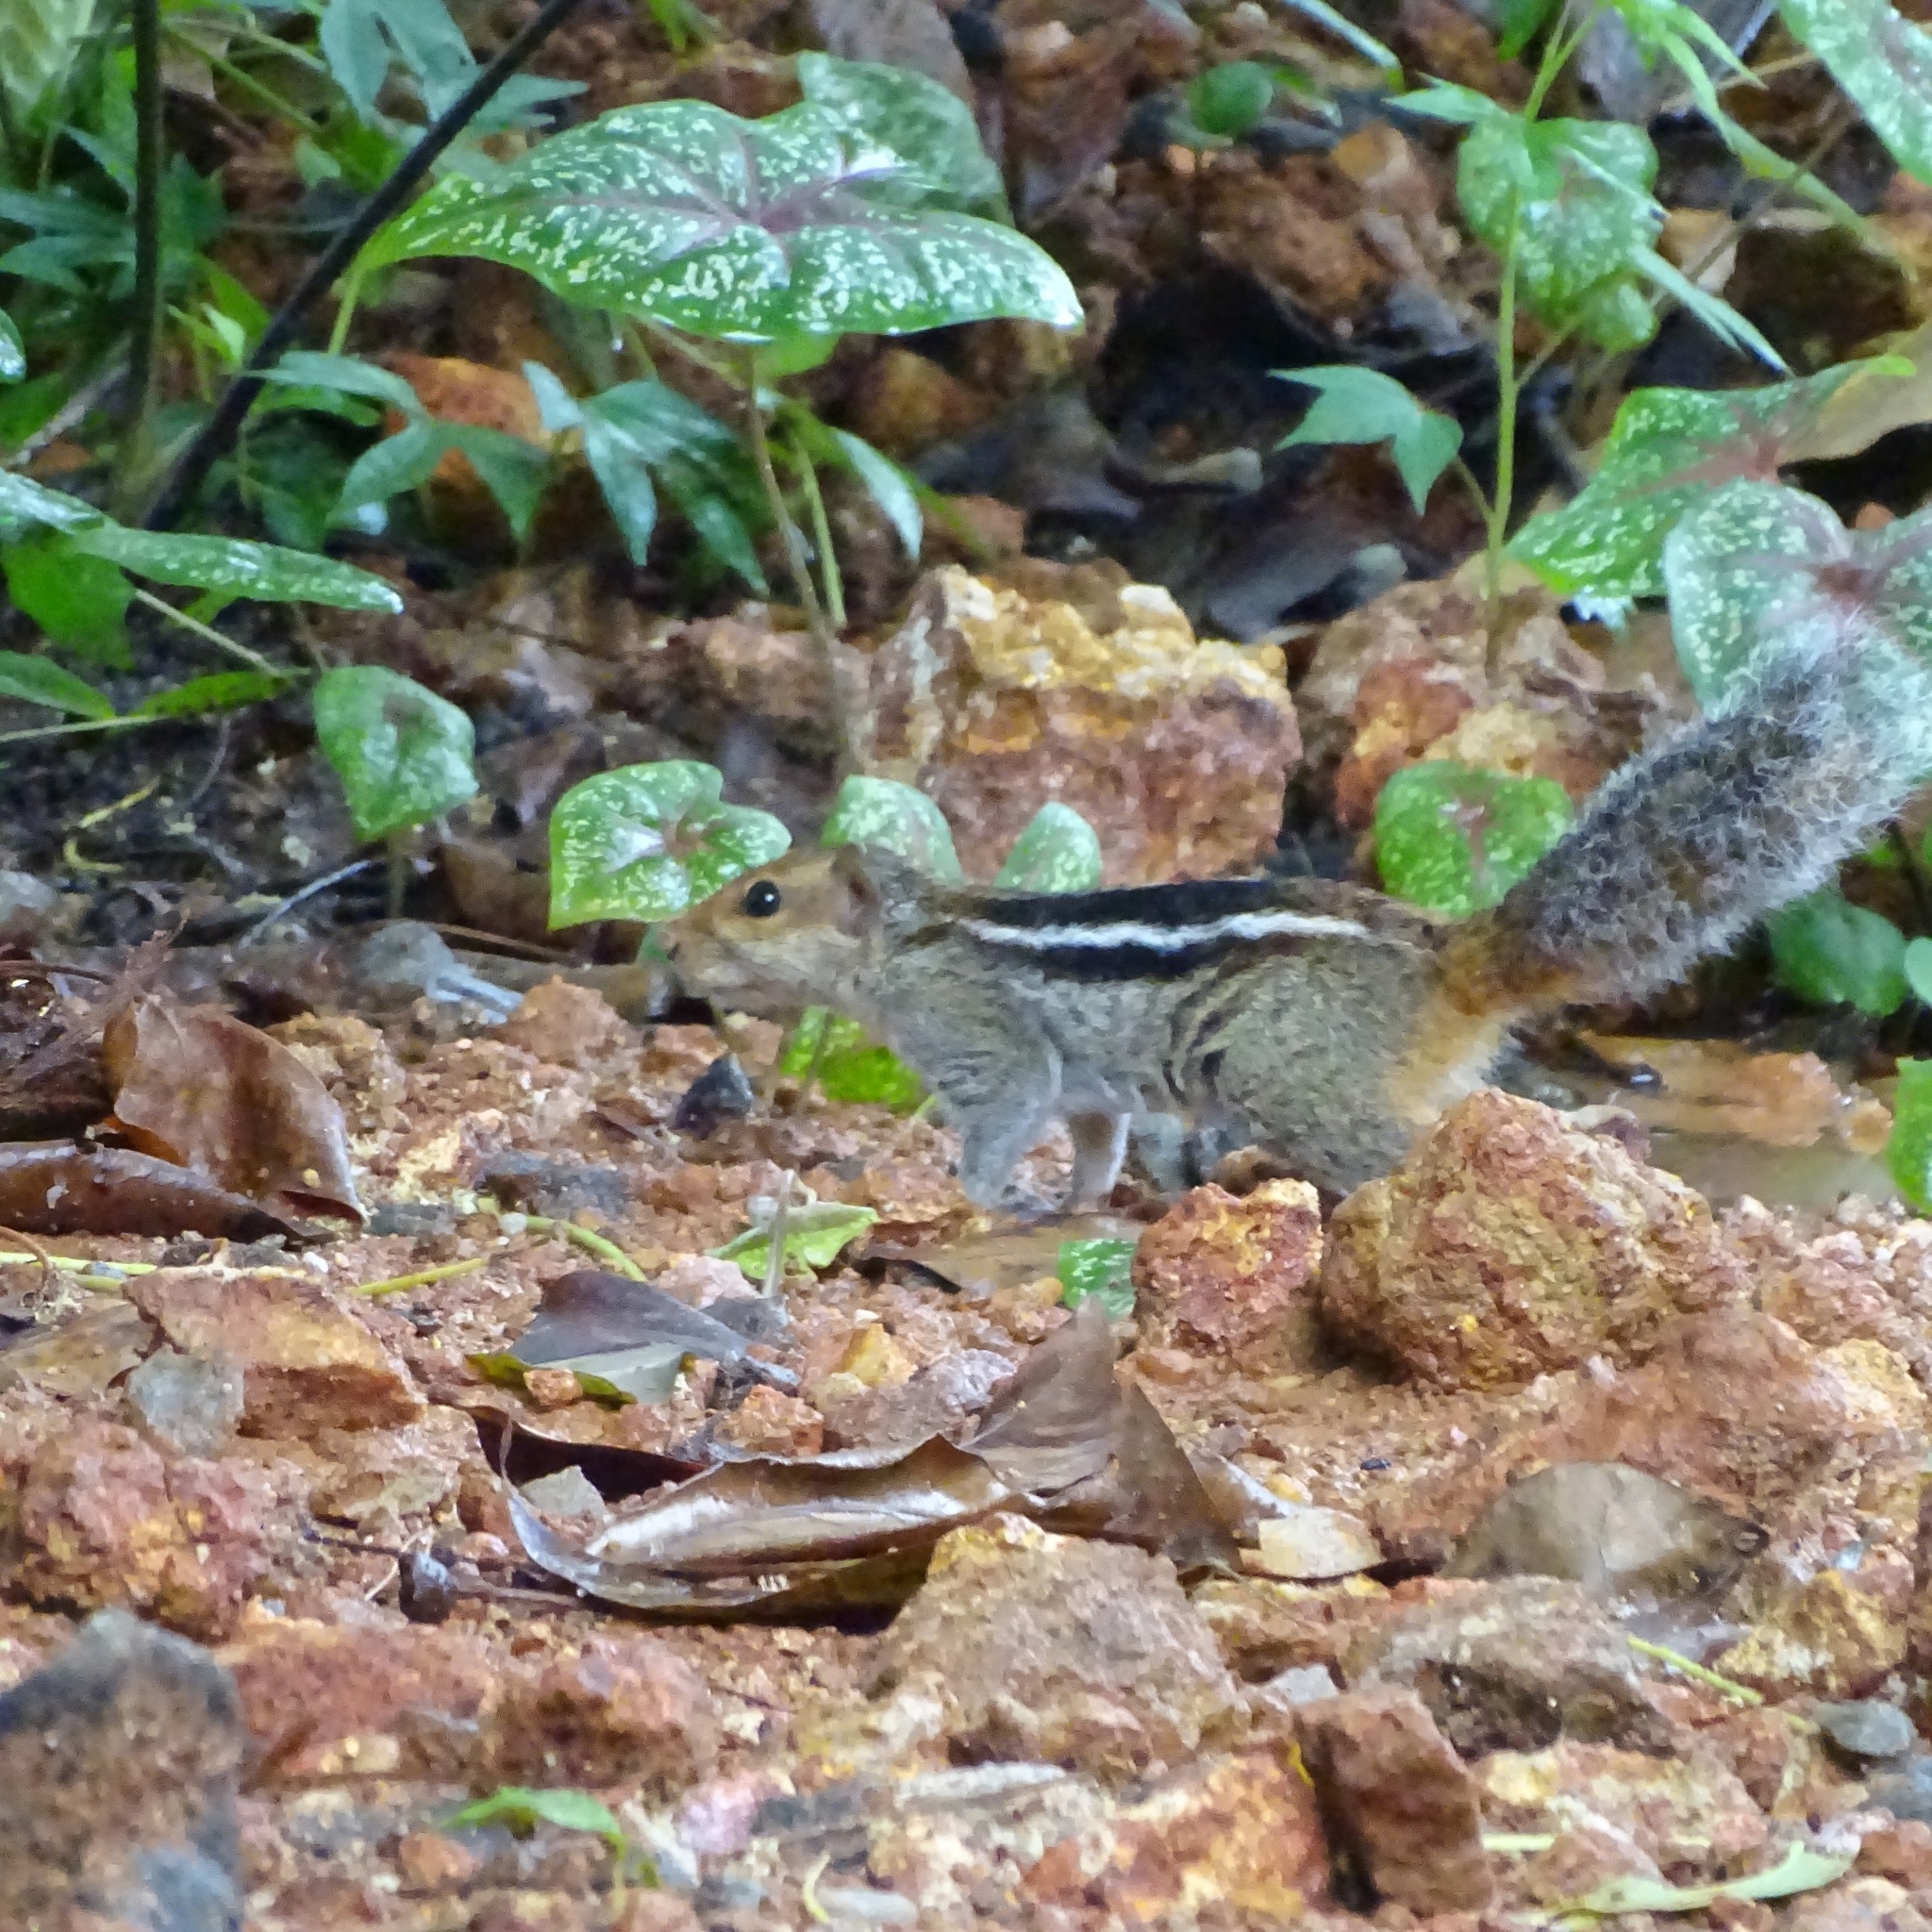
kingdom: Animalia
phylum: Chordata
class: Mammalia
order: Rodentia
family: Sciuridae
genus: Funambulus
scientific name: Funambulus tristriatus
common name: Jungle palm squirrel
